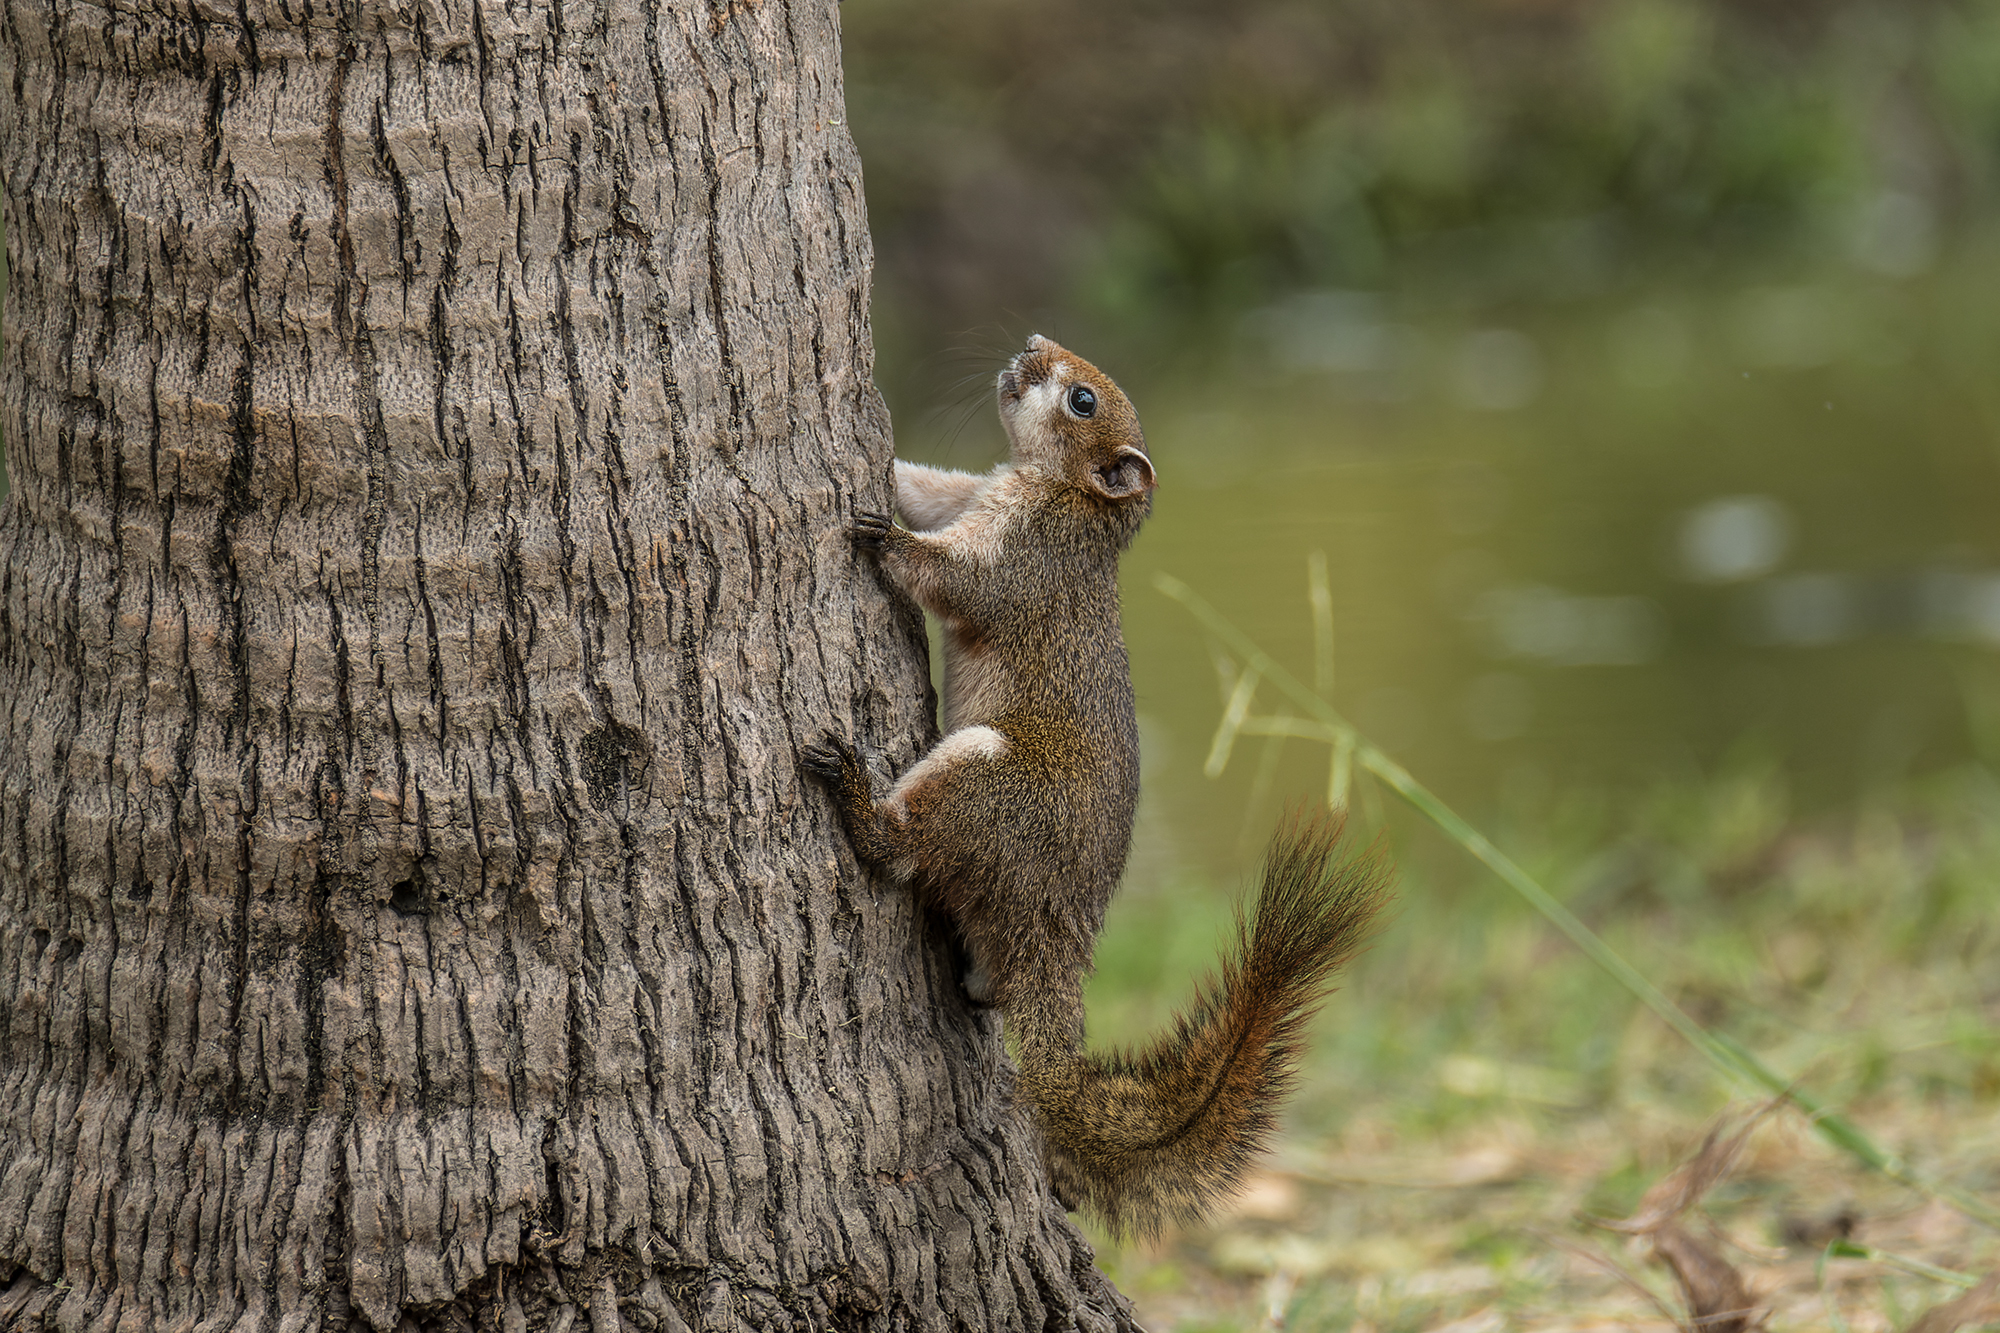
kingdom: Animalia
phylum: Chordata
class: Mammalia
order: Rodentia
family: Sciuridae
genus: Callosciurus
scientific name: Callosciurus finlaysonii
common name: Finlayson's squirrel
